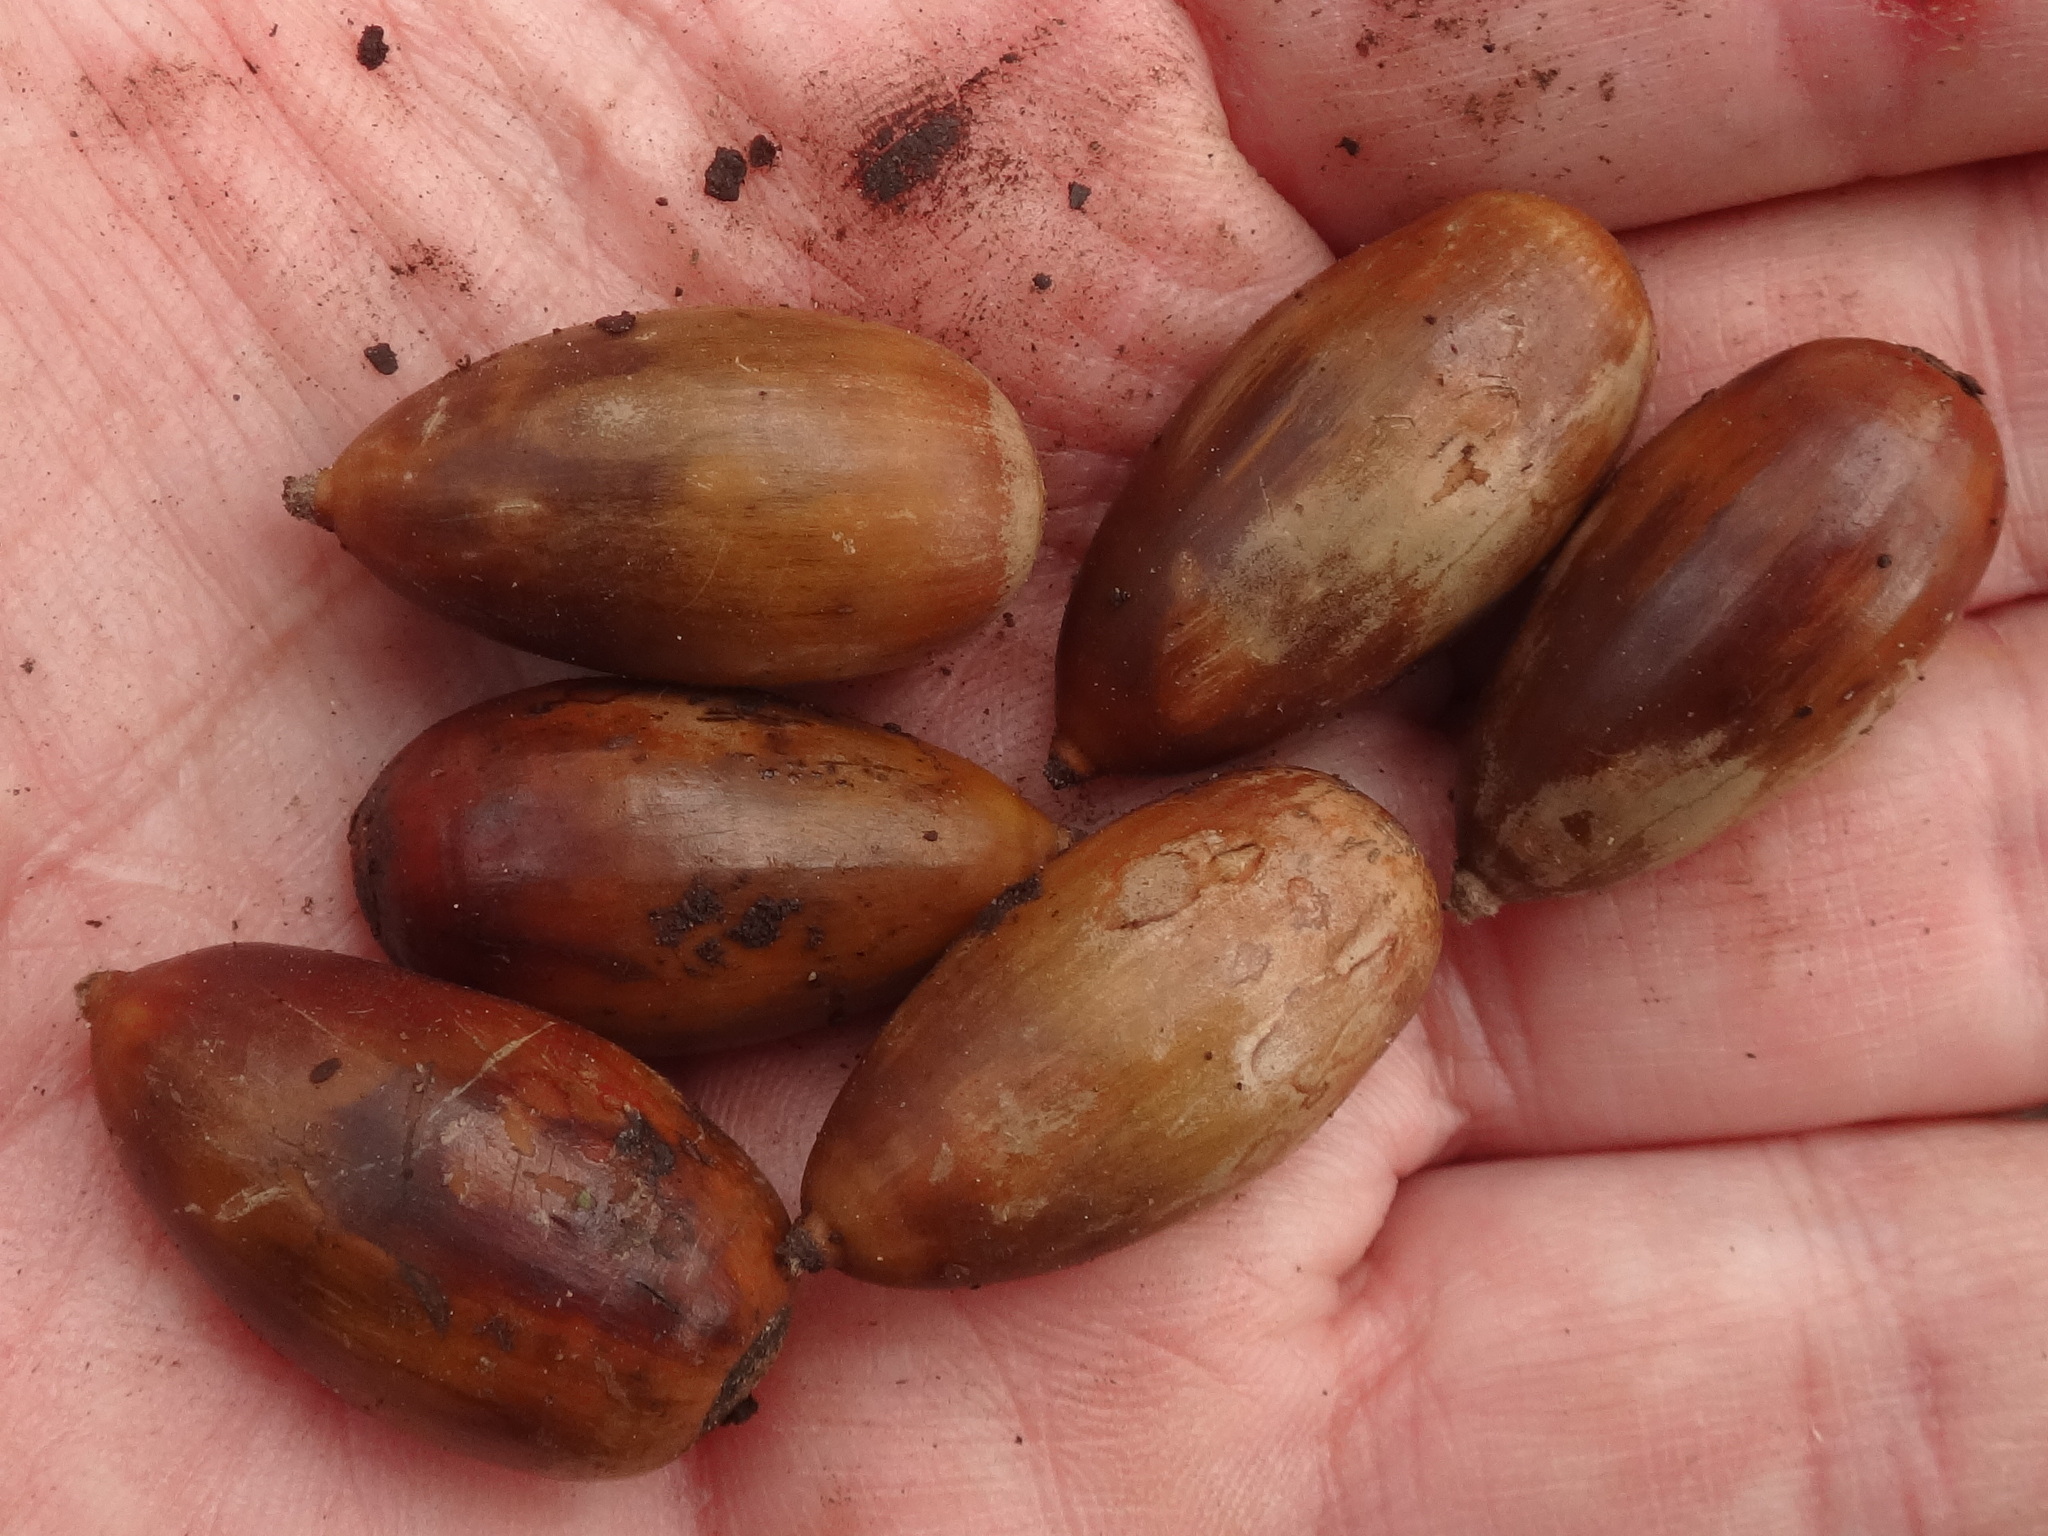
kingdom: Plantae
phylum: Tracheophyta
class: Magnoliopsida
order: Fagales
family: Fagaceae
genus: Quercus
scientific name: Quercus ilex
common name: Evergreen oak
